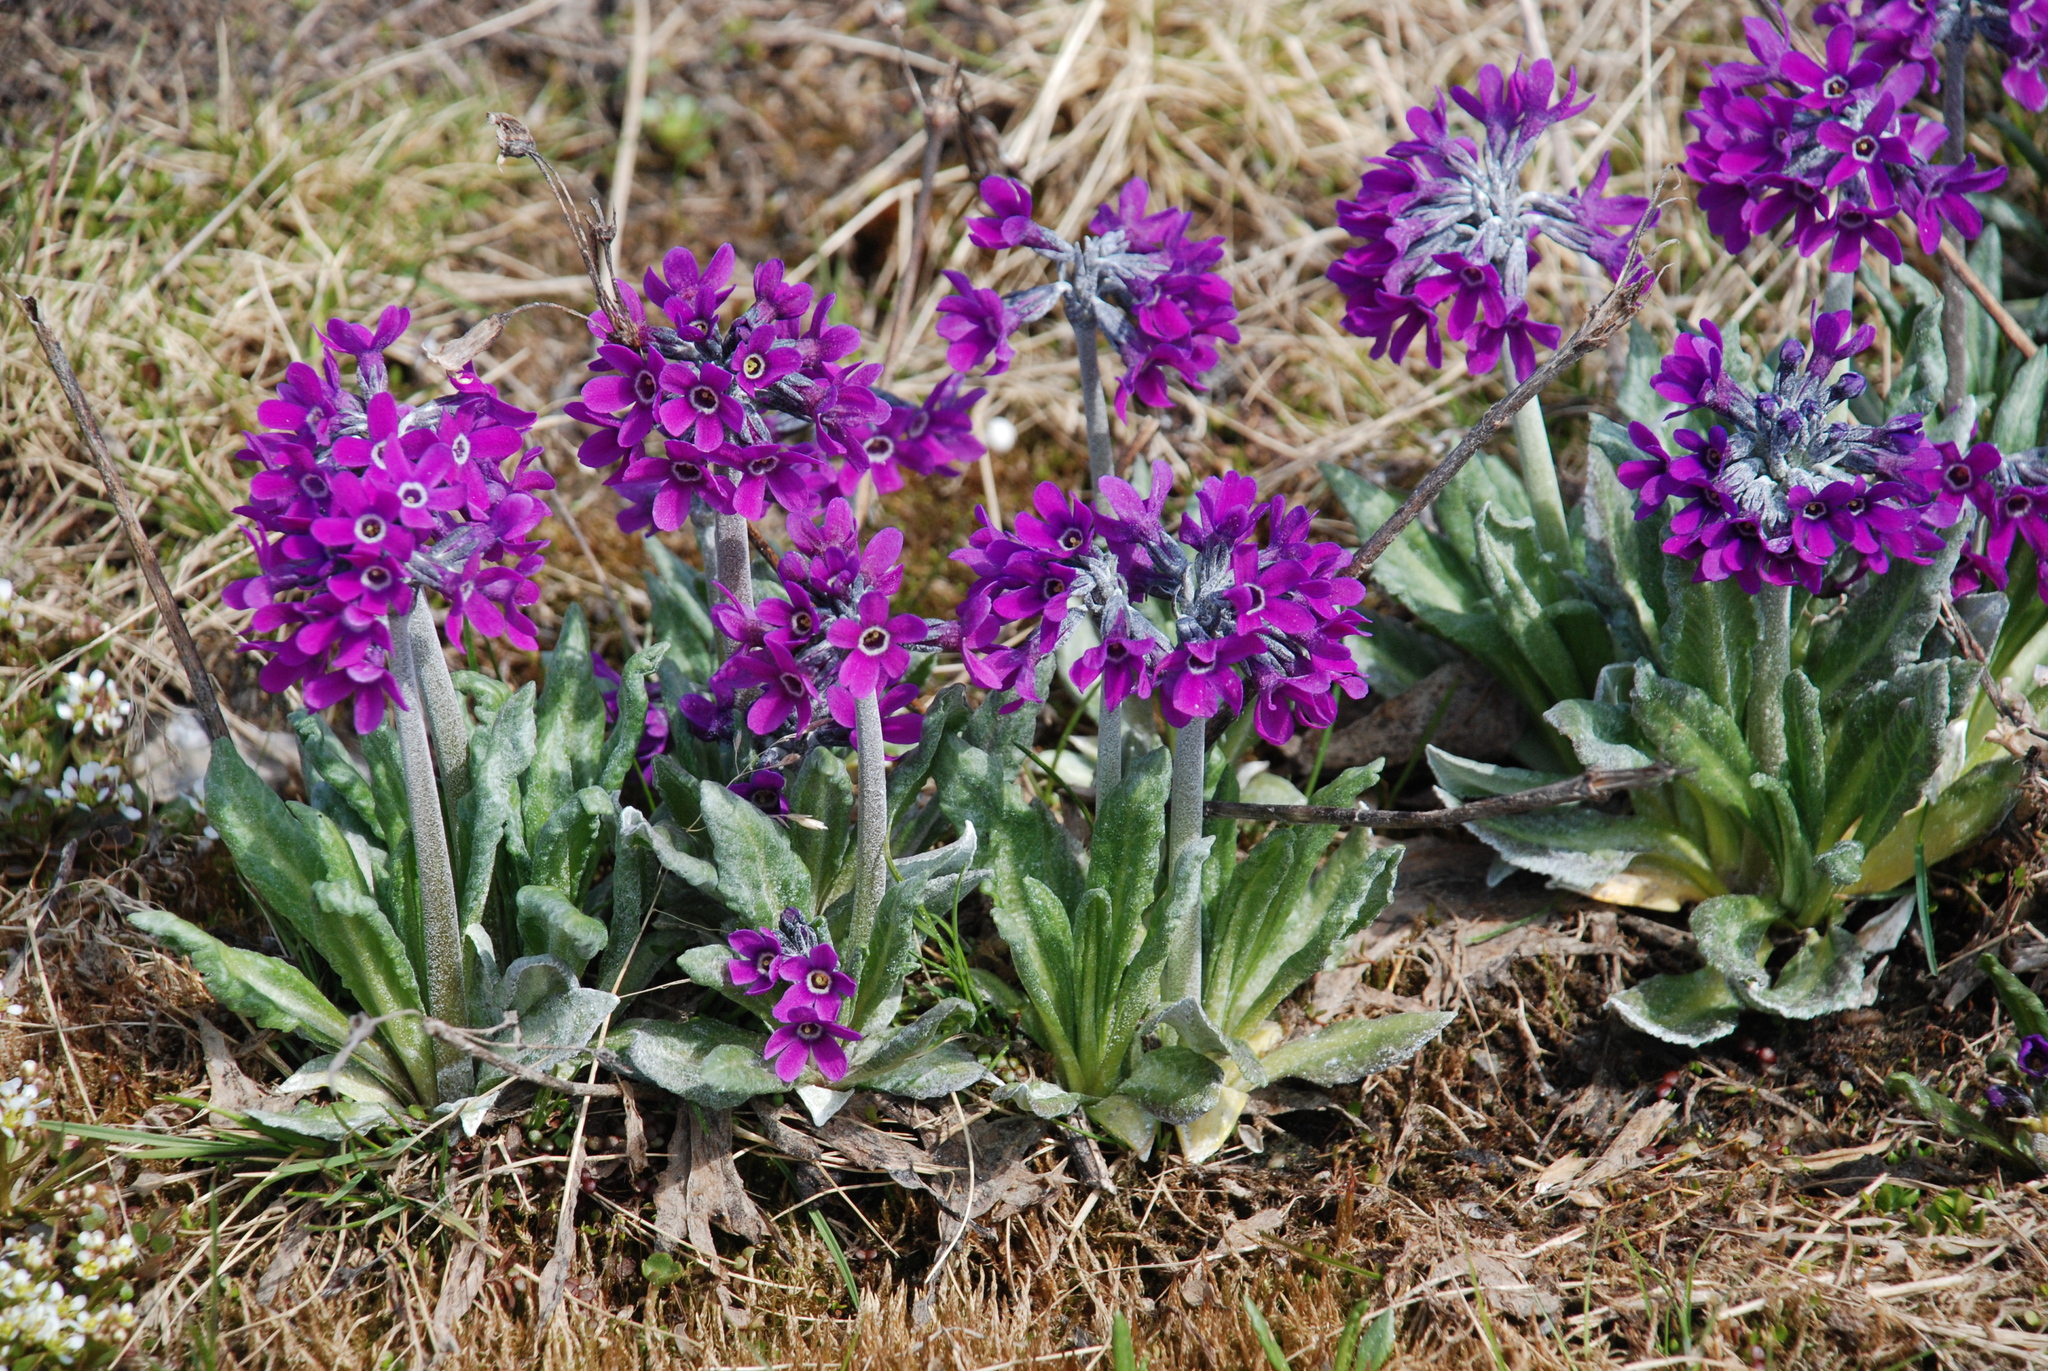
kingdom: Plantae
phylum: Tracheophyta
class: Magnoliopsida
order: Ericales
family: Primulaceae
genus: Primula
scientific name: Primula pumila
